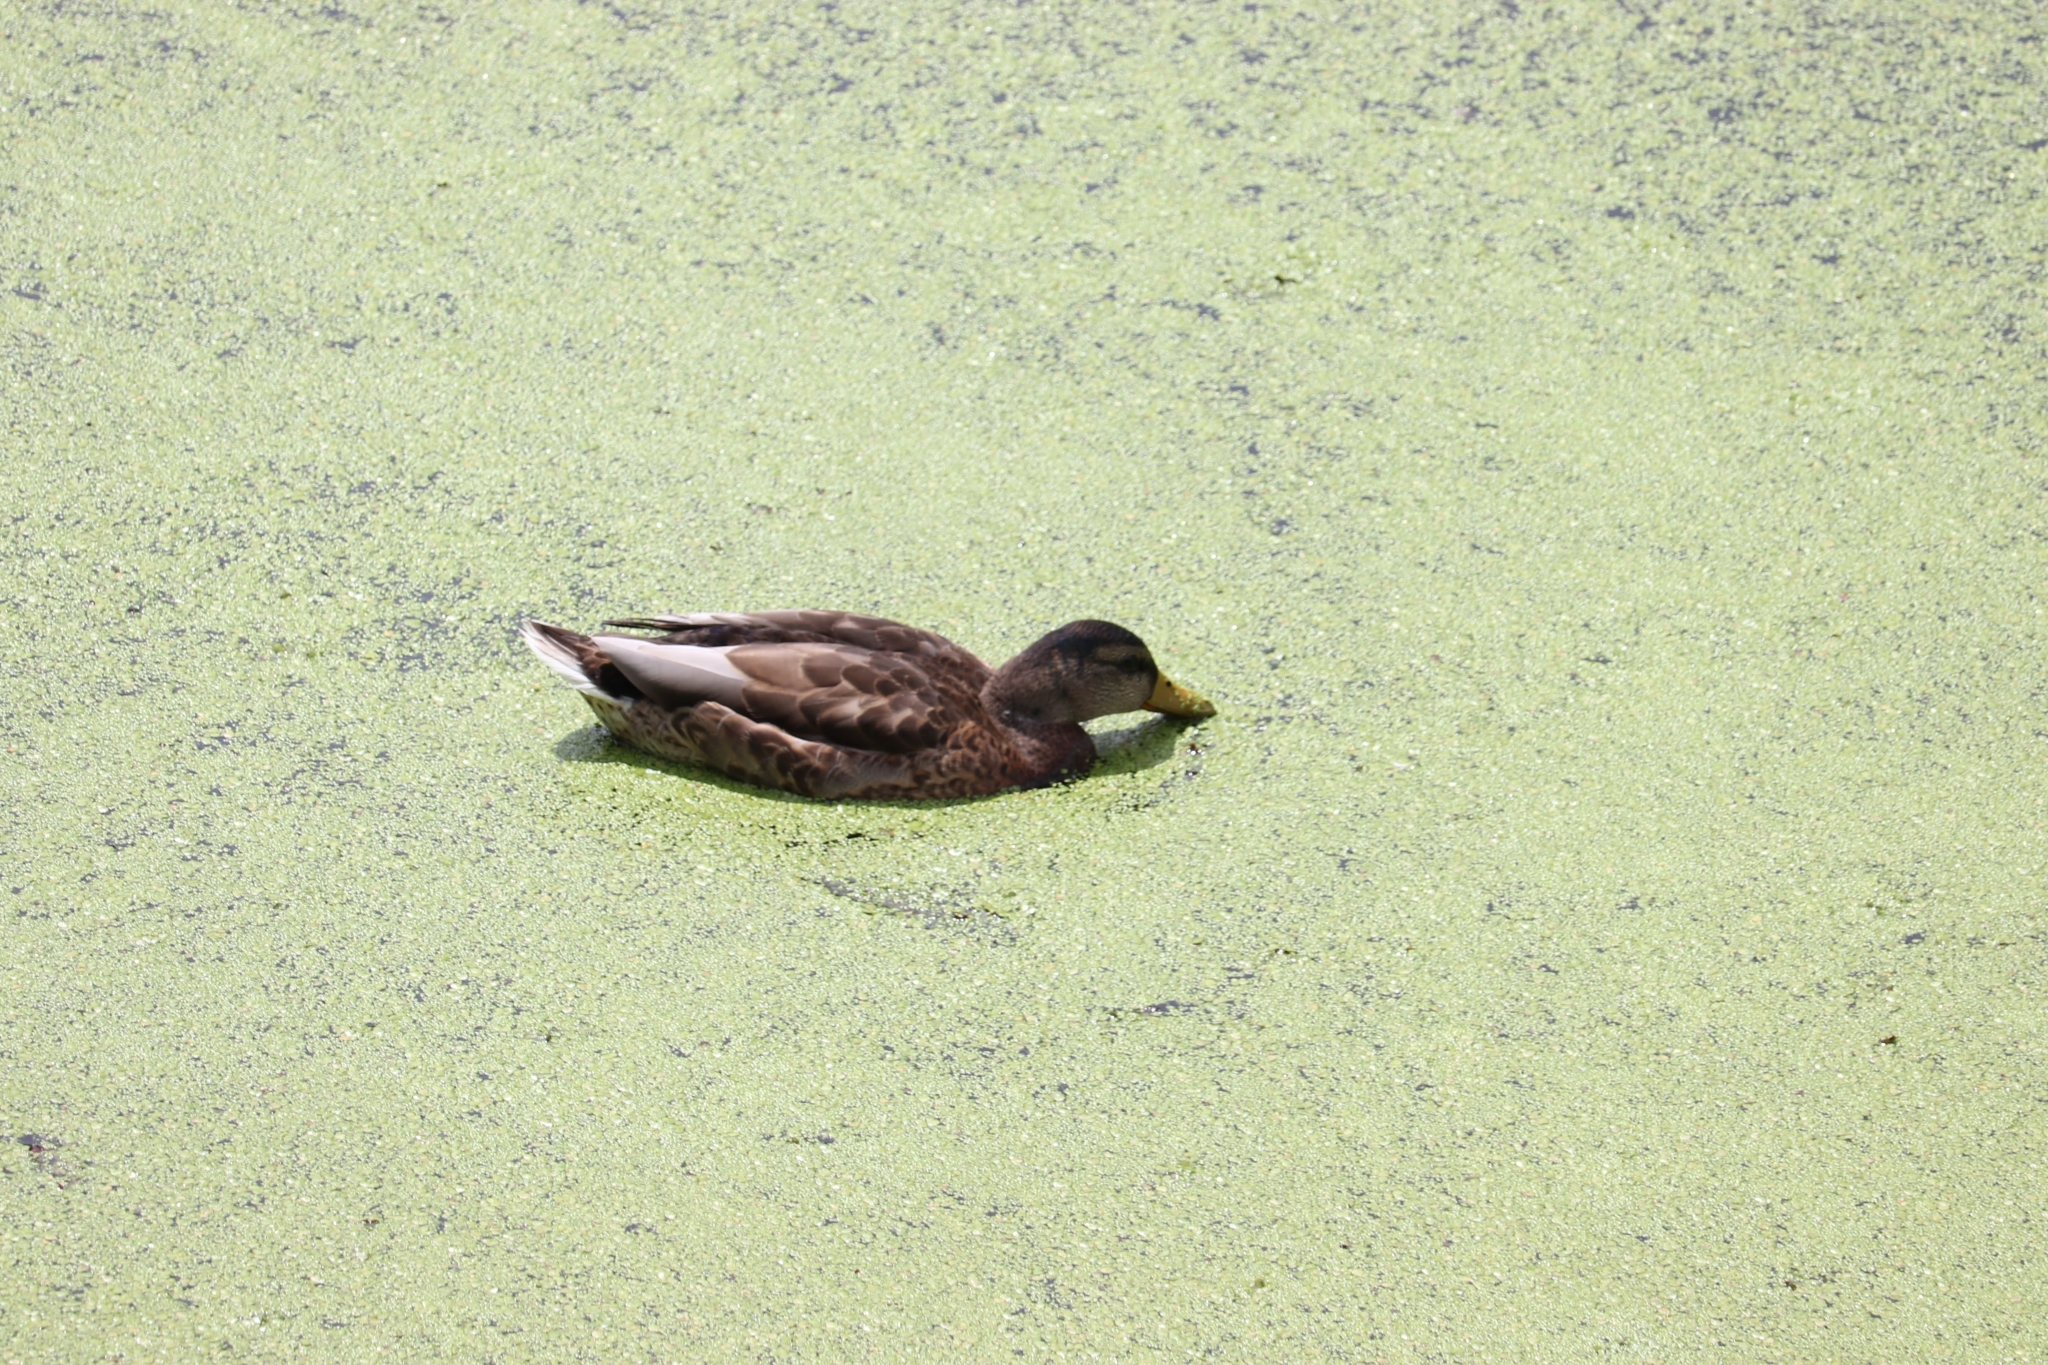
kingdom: Animalia
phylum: Chordata
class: Aves
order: Anseriformes
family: Anatidae
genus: Anas
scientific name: Anas platyrhynchos
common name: Mallard
